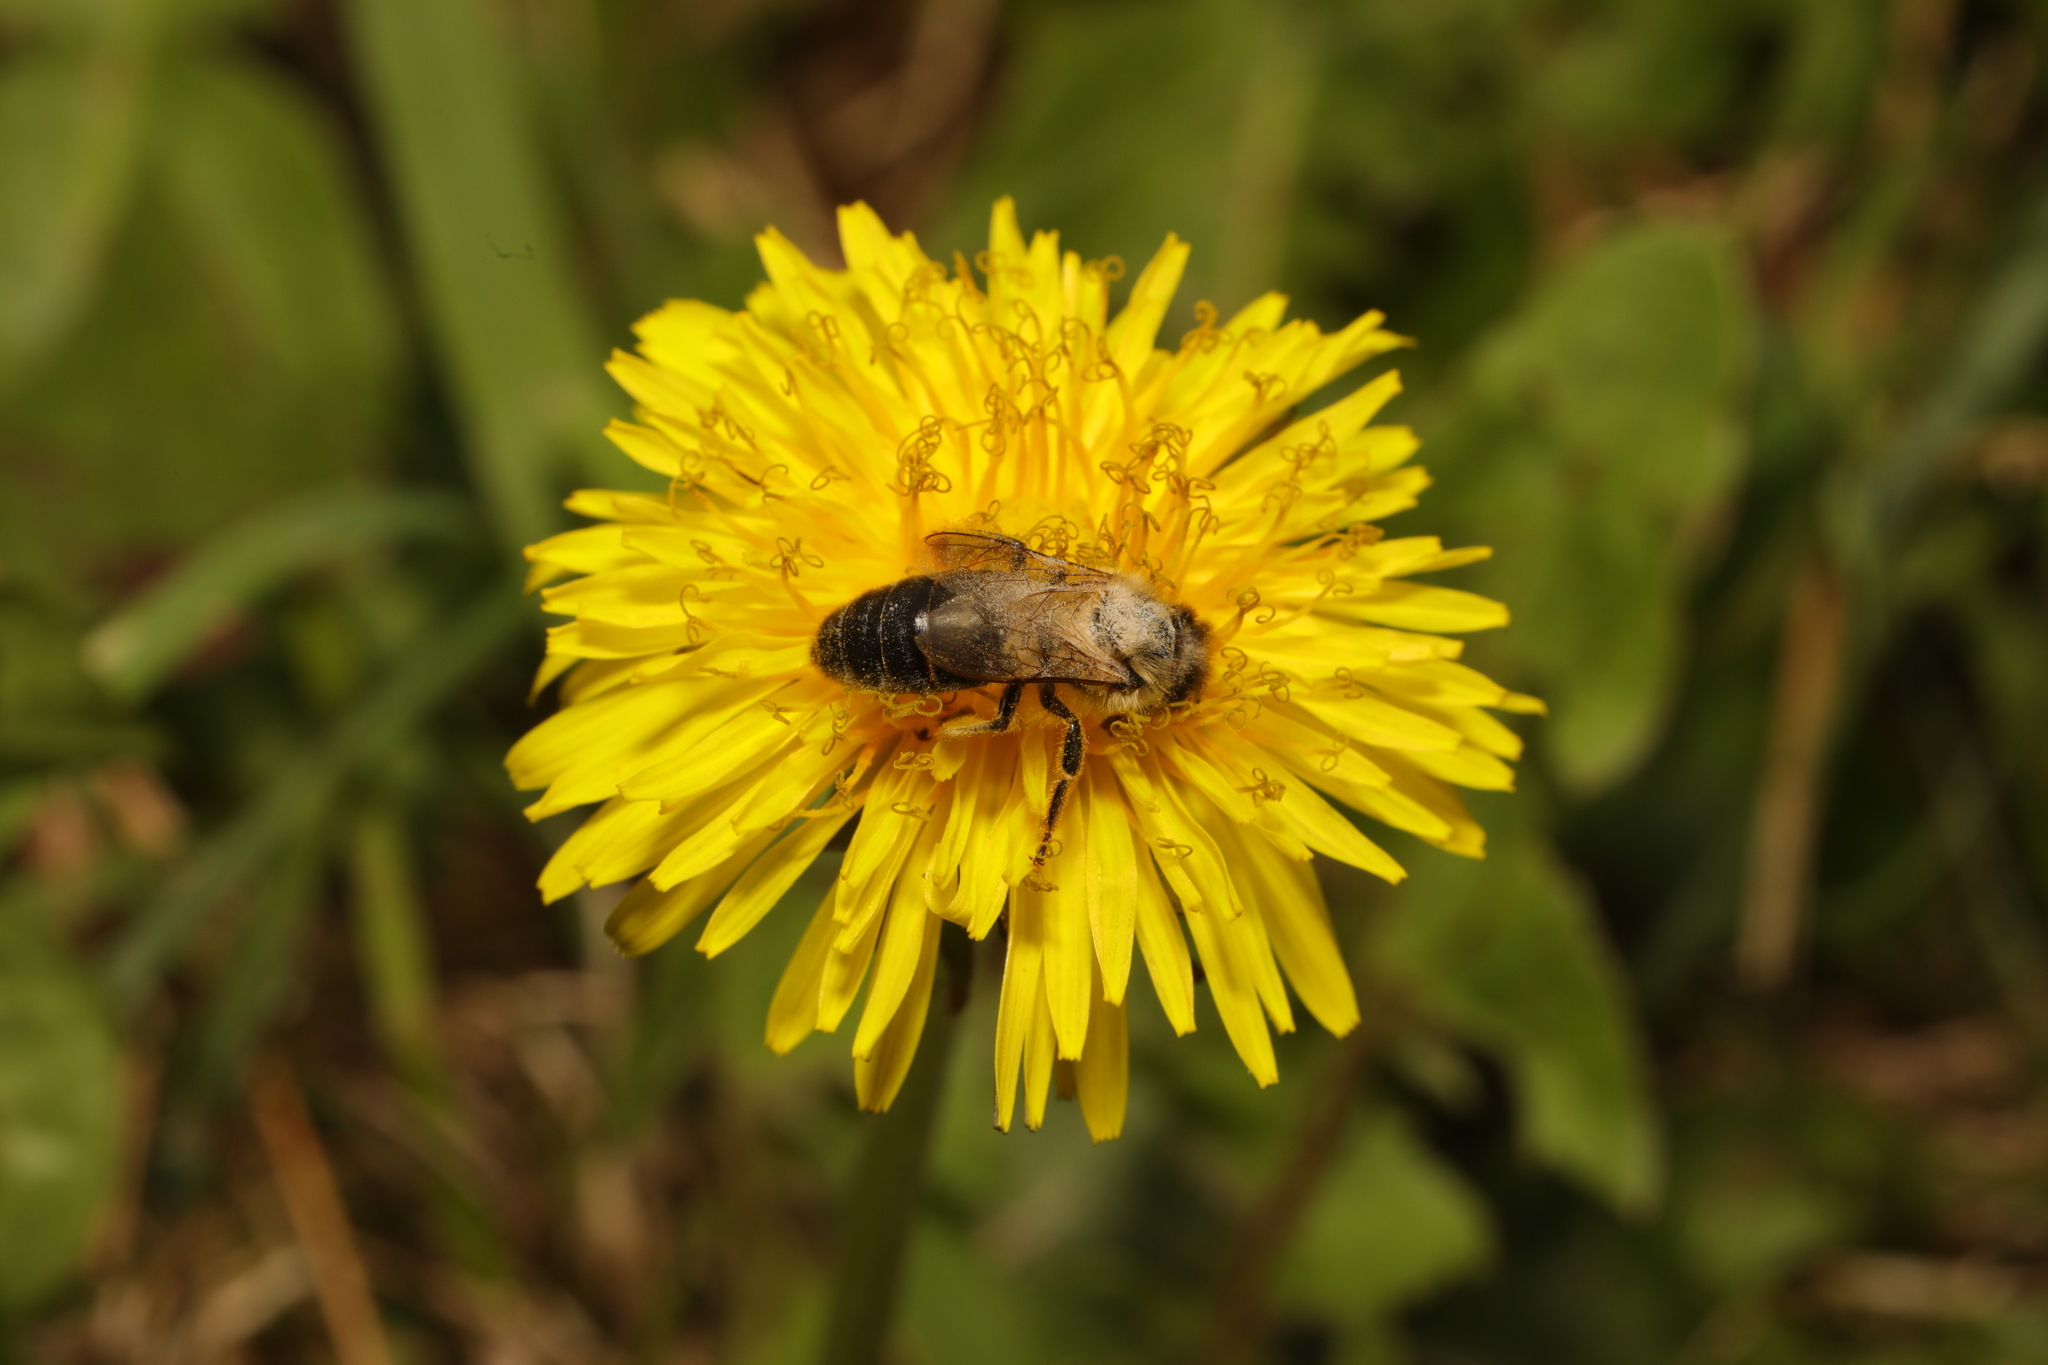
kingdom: Animalia
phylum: Arthropoda
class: Insecta
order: Hymenoptera
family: Apidae
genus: Apis
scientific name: Apis mellifera
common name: Honey bee
